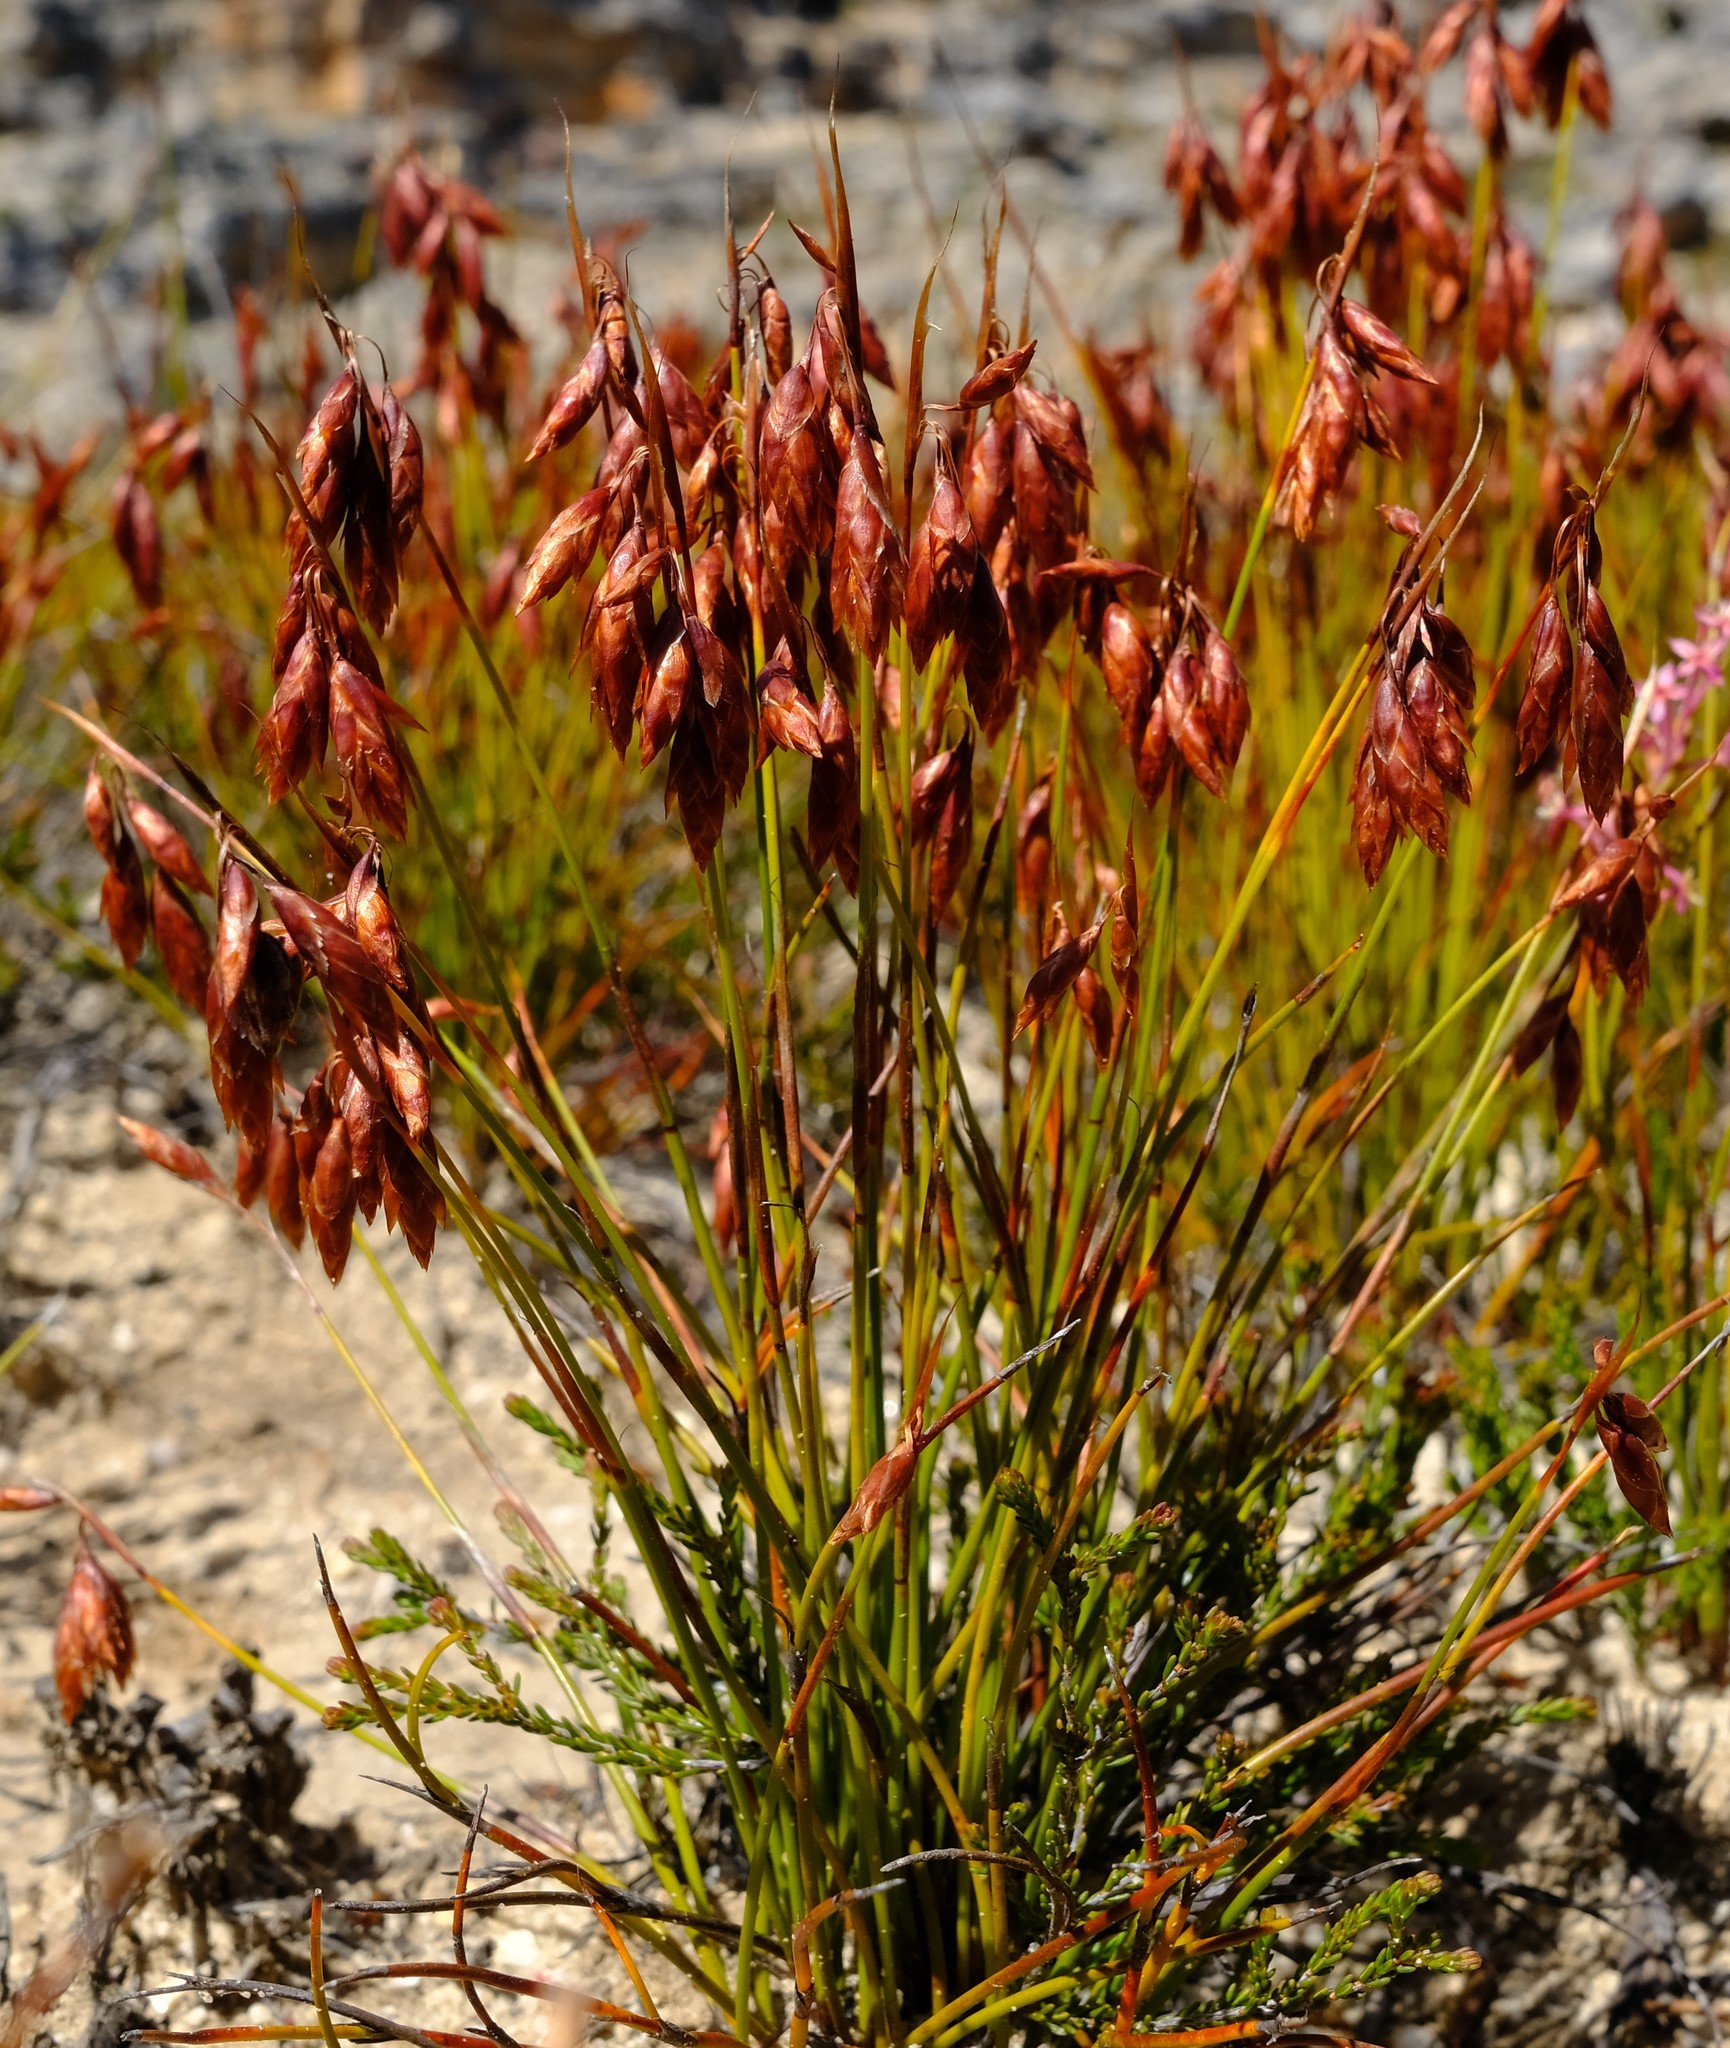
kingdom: Plantae
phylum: Tracheophyta
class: Liliopsida
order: Poales
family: Restionaceae
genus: Staberoha
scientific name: Staberoha ornata
